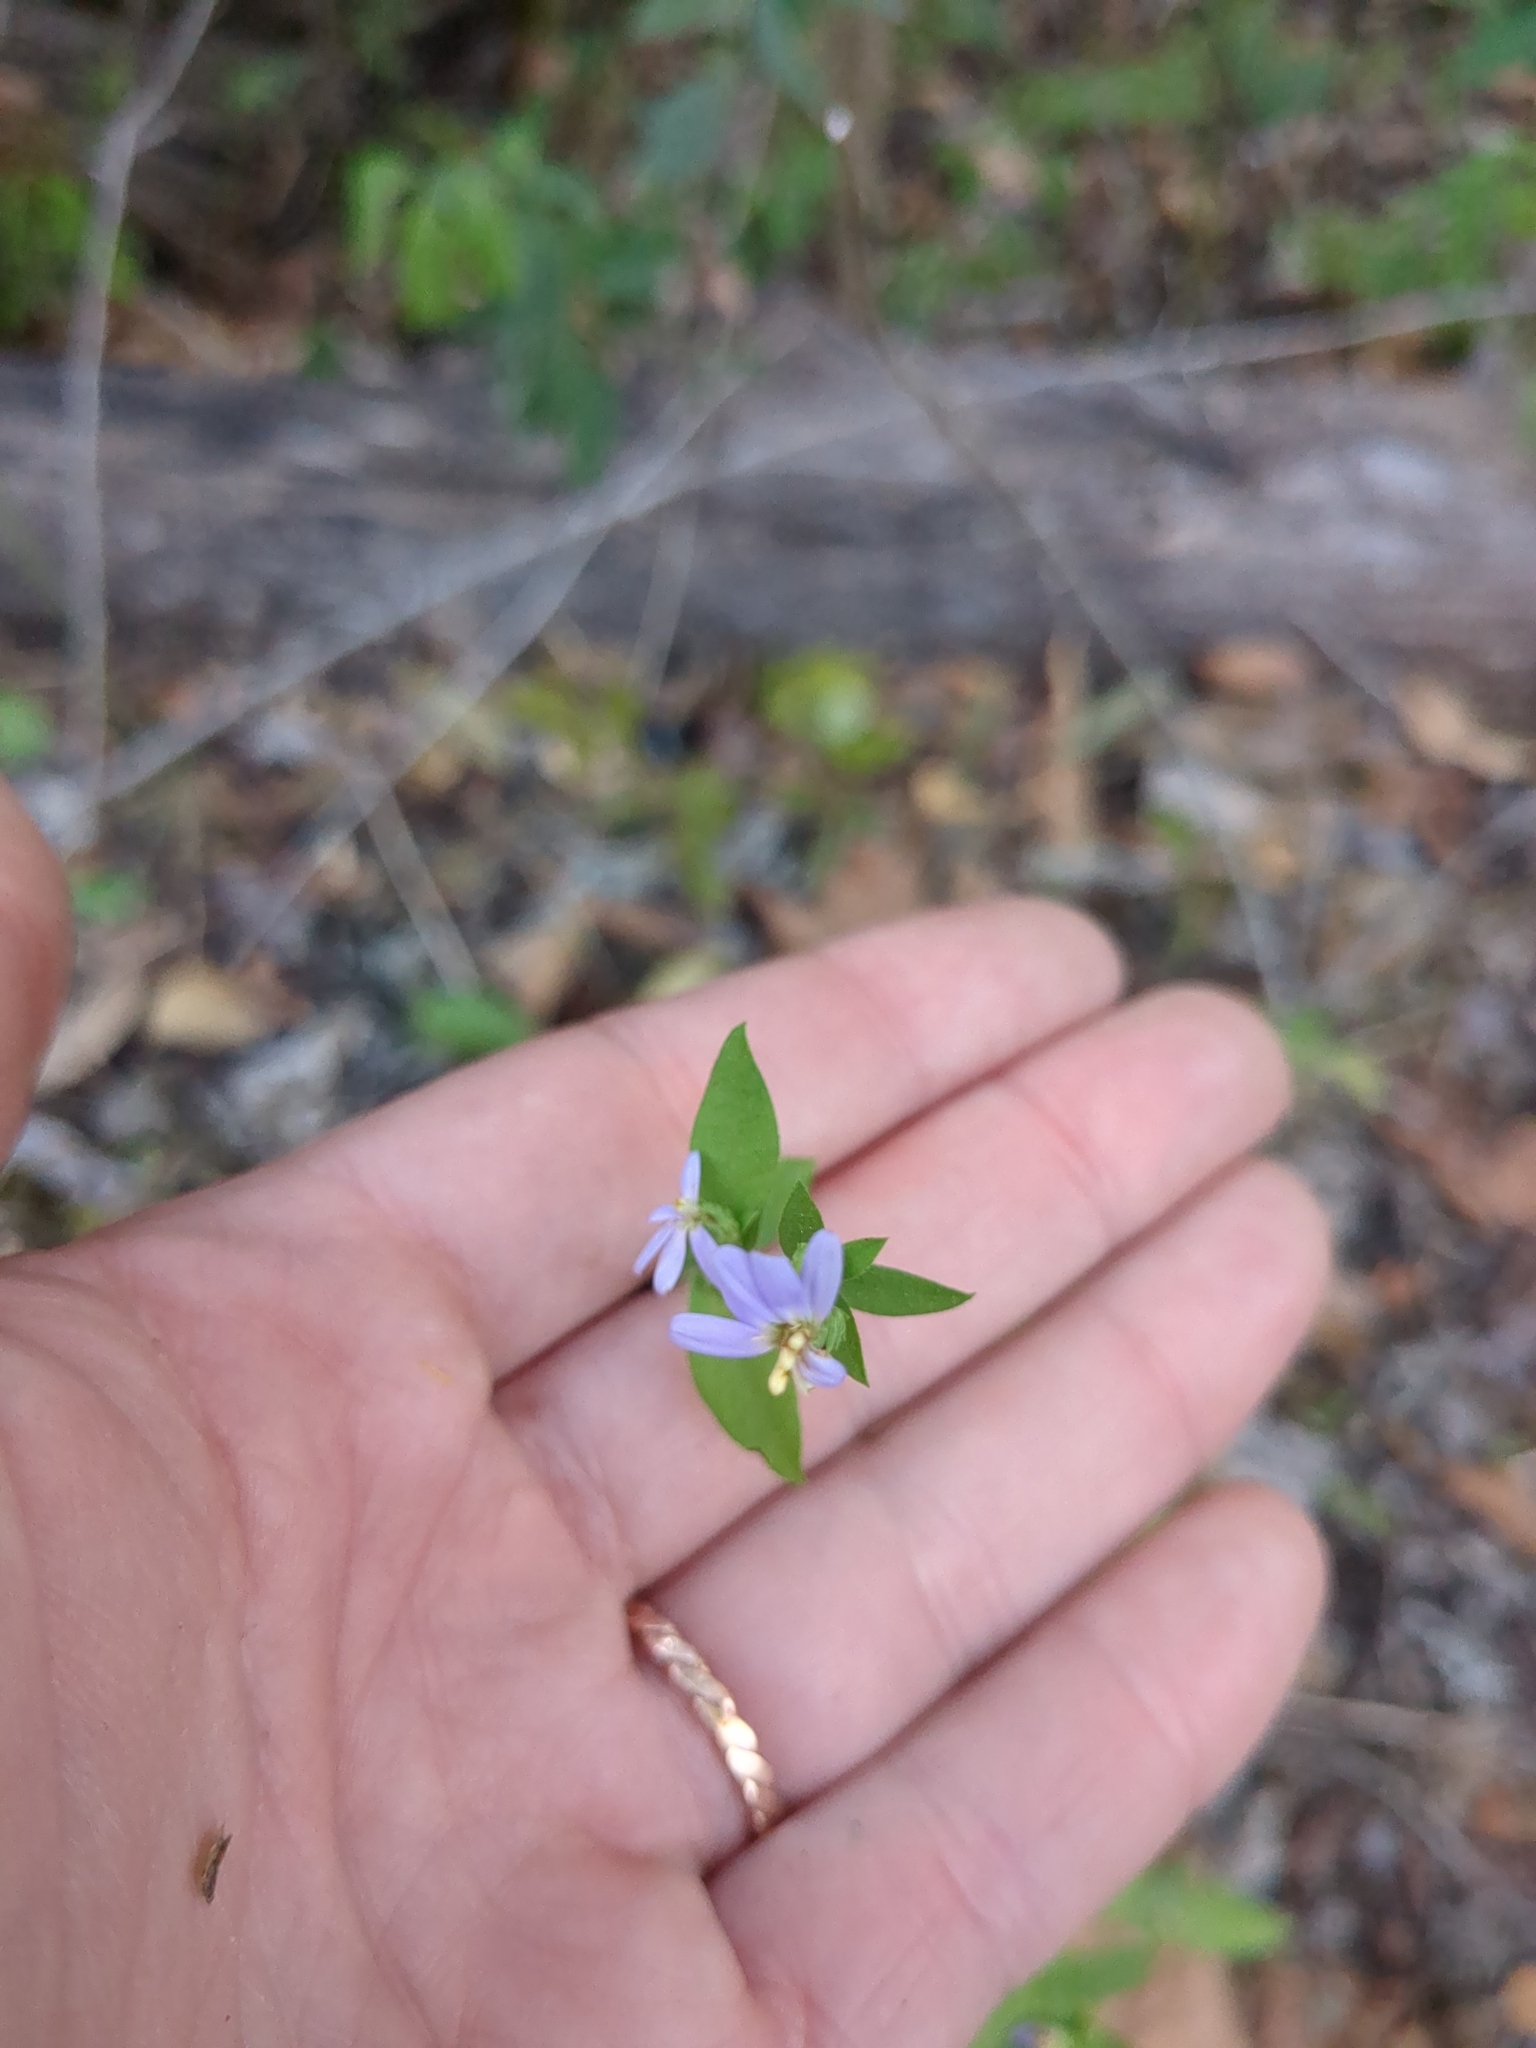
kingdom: Plantae
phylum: Tracheophyta
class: Magnoliopsida
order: Asterales
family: Asteraceae
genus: Symphyotrichum
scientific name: Symphyotrichum drummondii
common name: Drummond's aster
